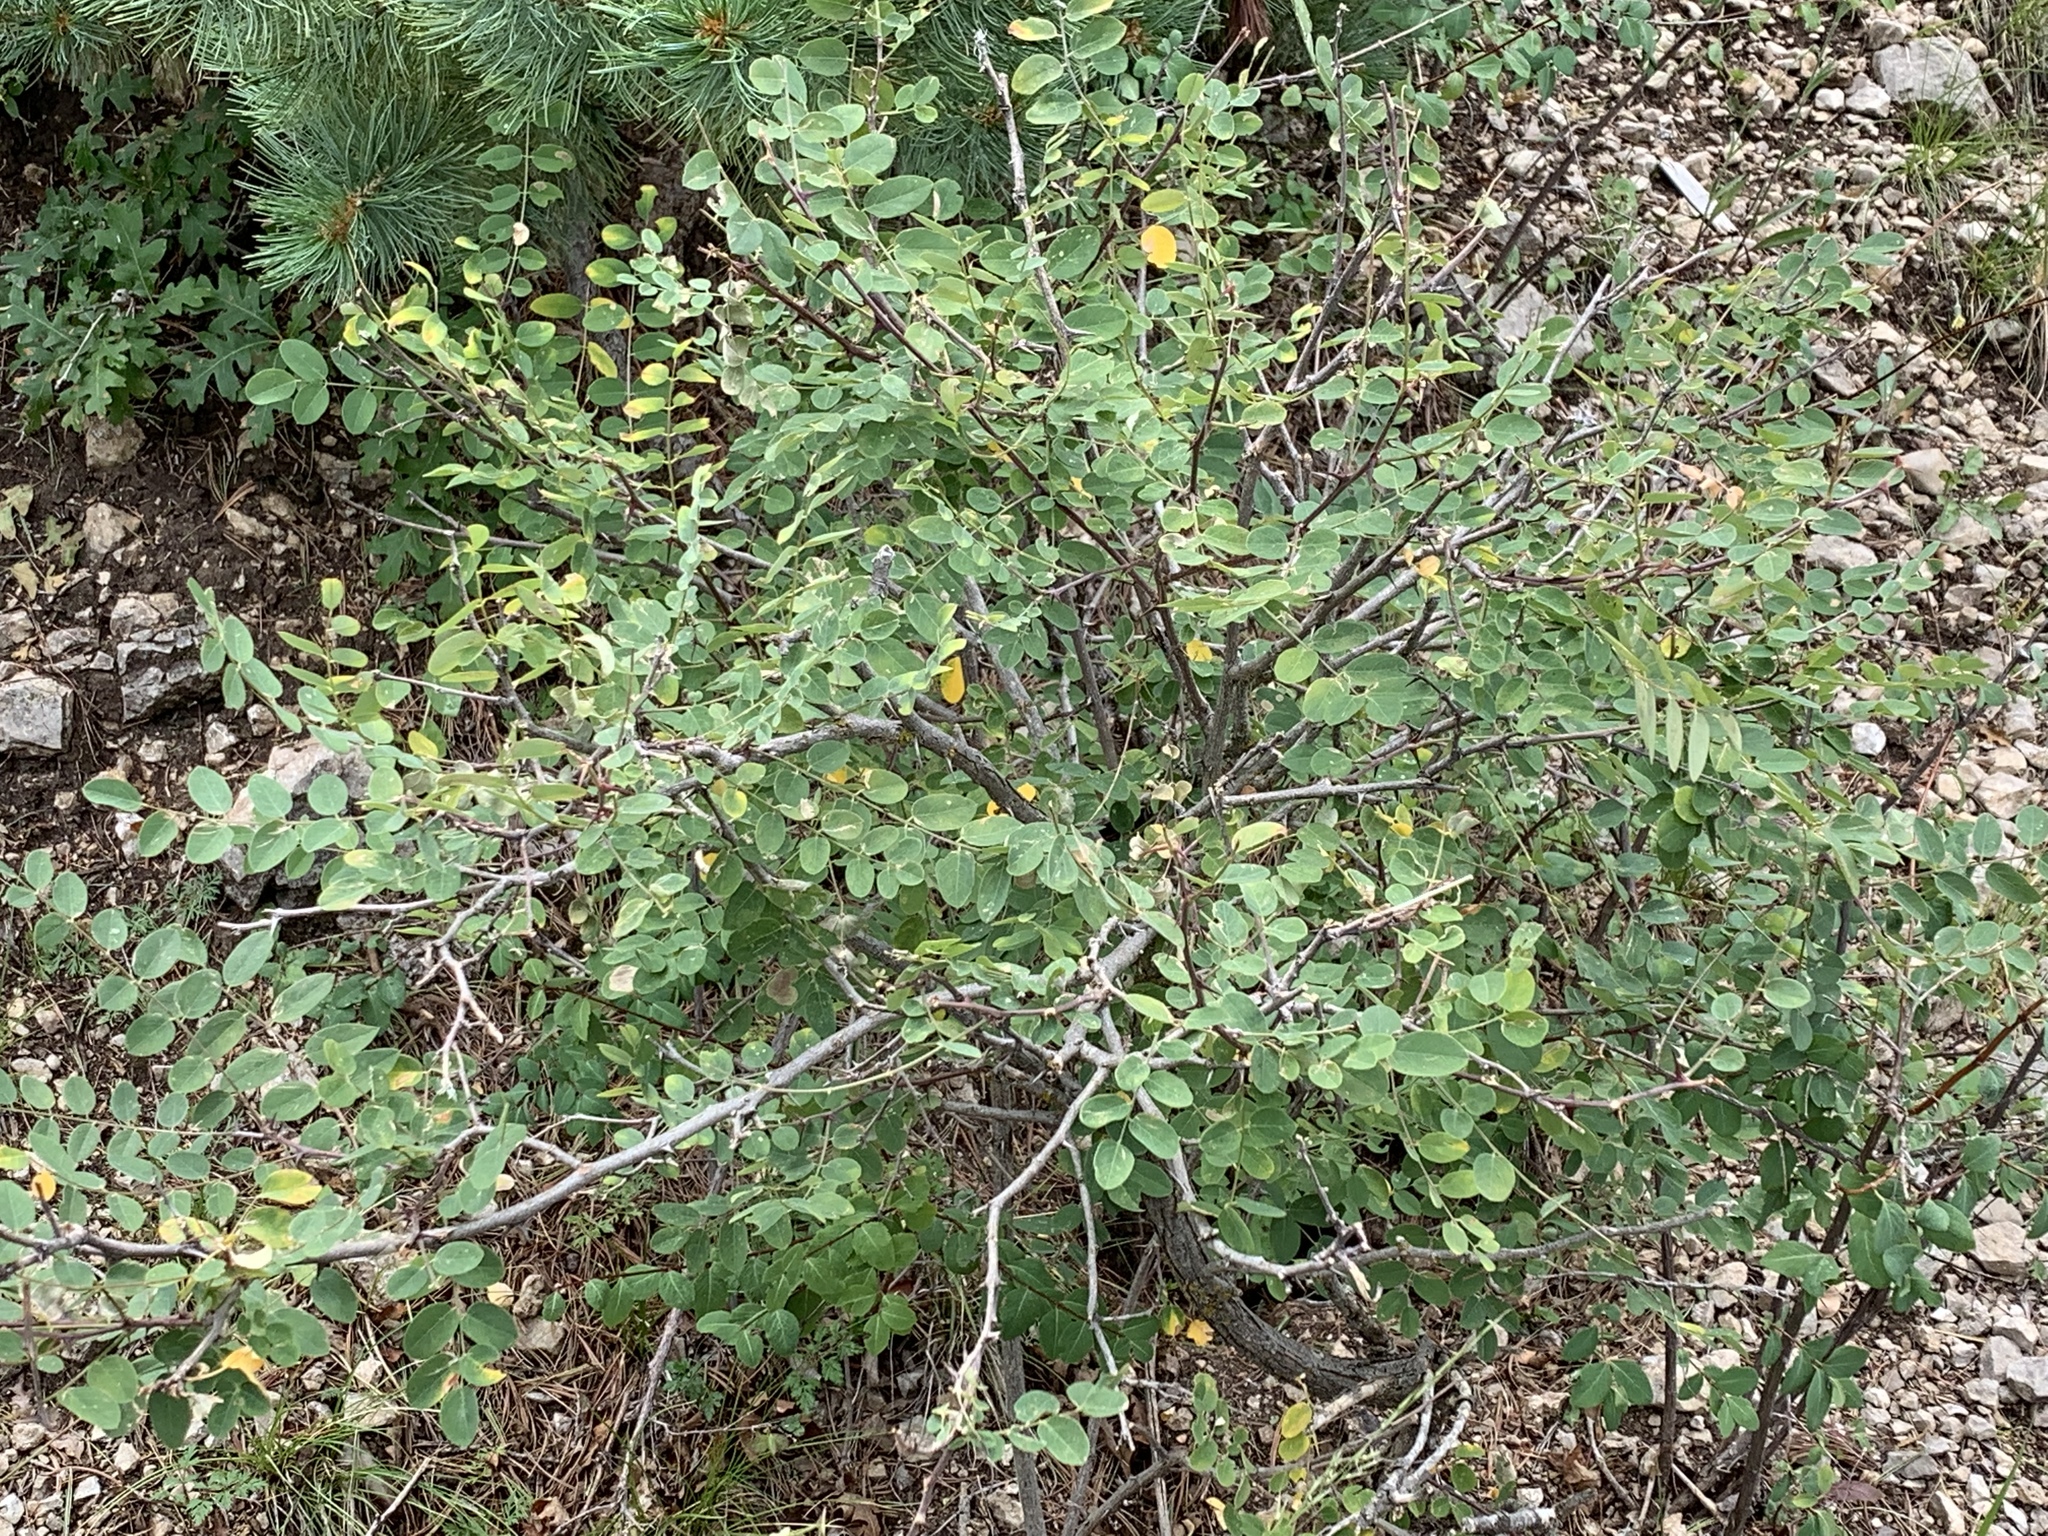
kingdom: Plantae
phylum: Tracheophyta
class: Magnoliopsida
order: Fabales
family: Fabaceae
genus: Robinia
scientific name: Robinia neomexicana
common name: New mexico locust
